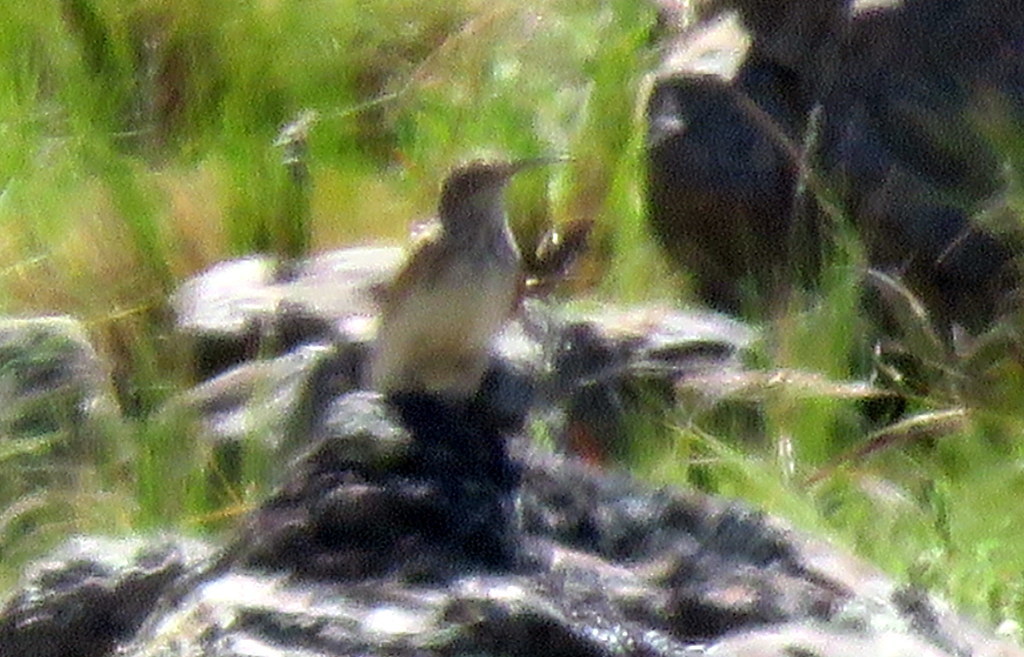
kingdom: Animalia
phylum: Chordata
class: Aves
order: Passeriformes
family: Furnariidae
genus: Geositta
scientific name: Geositta tenuirostris
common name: Slender-billed miner
